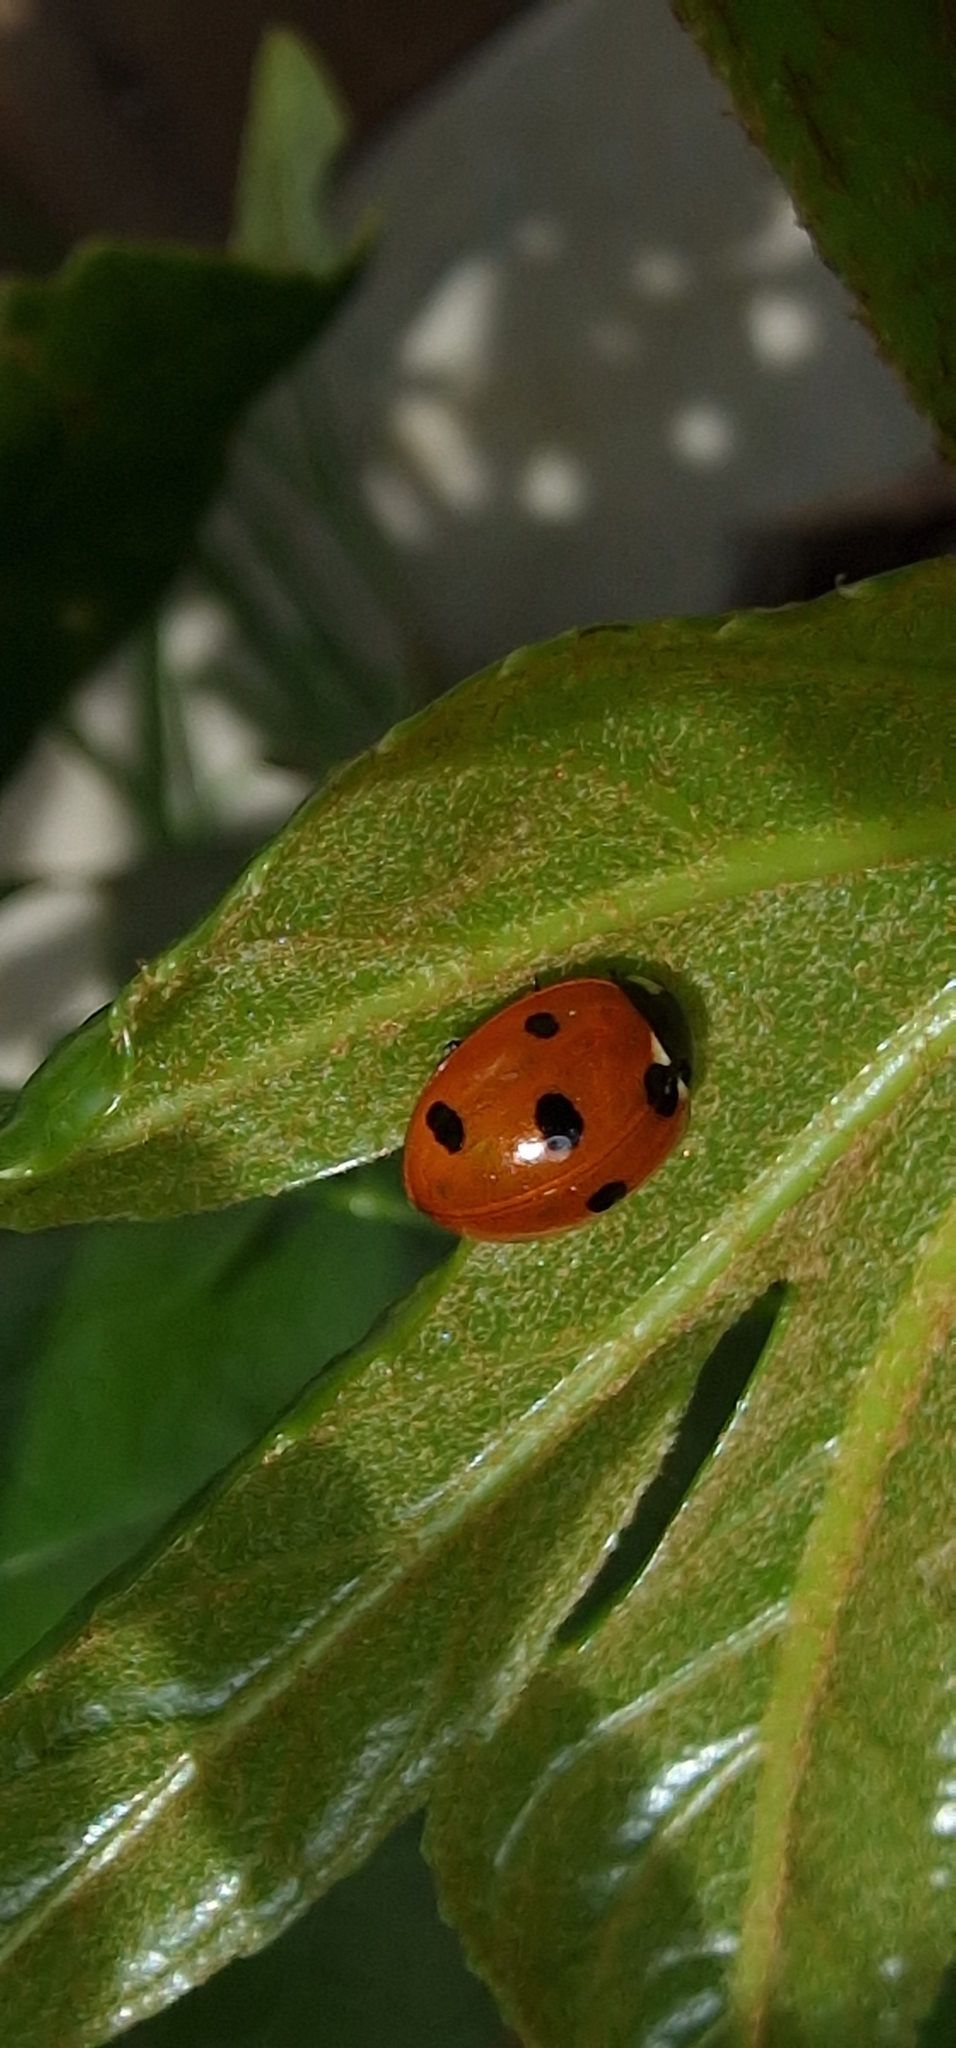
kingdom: Animalia
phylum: Arthropoda
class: Insecta
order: Coleoptera
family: Coccinellidae
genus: Coccinella
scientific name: Coccinella septempunctata
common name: Sevenspotted lady beetle
